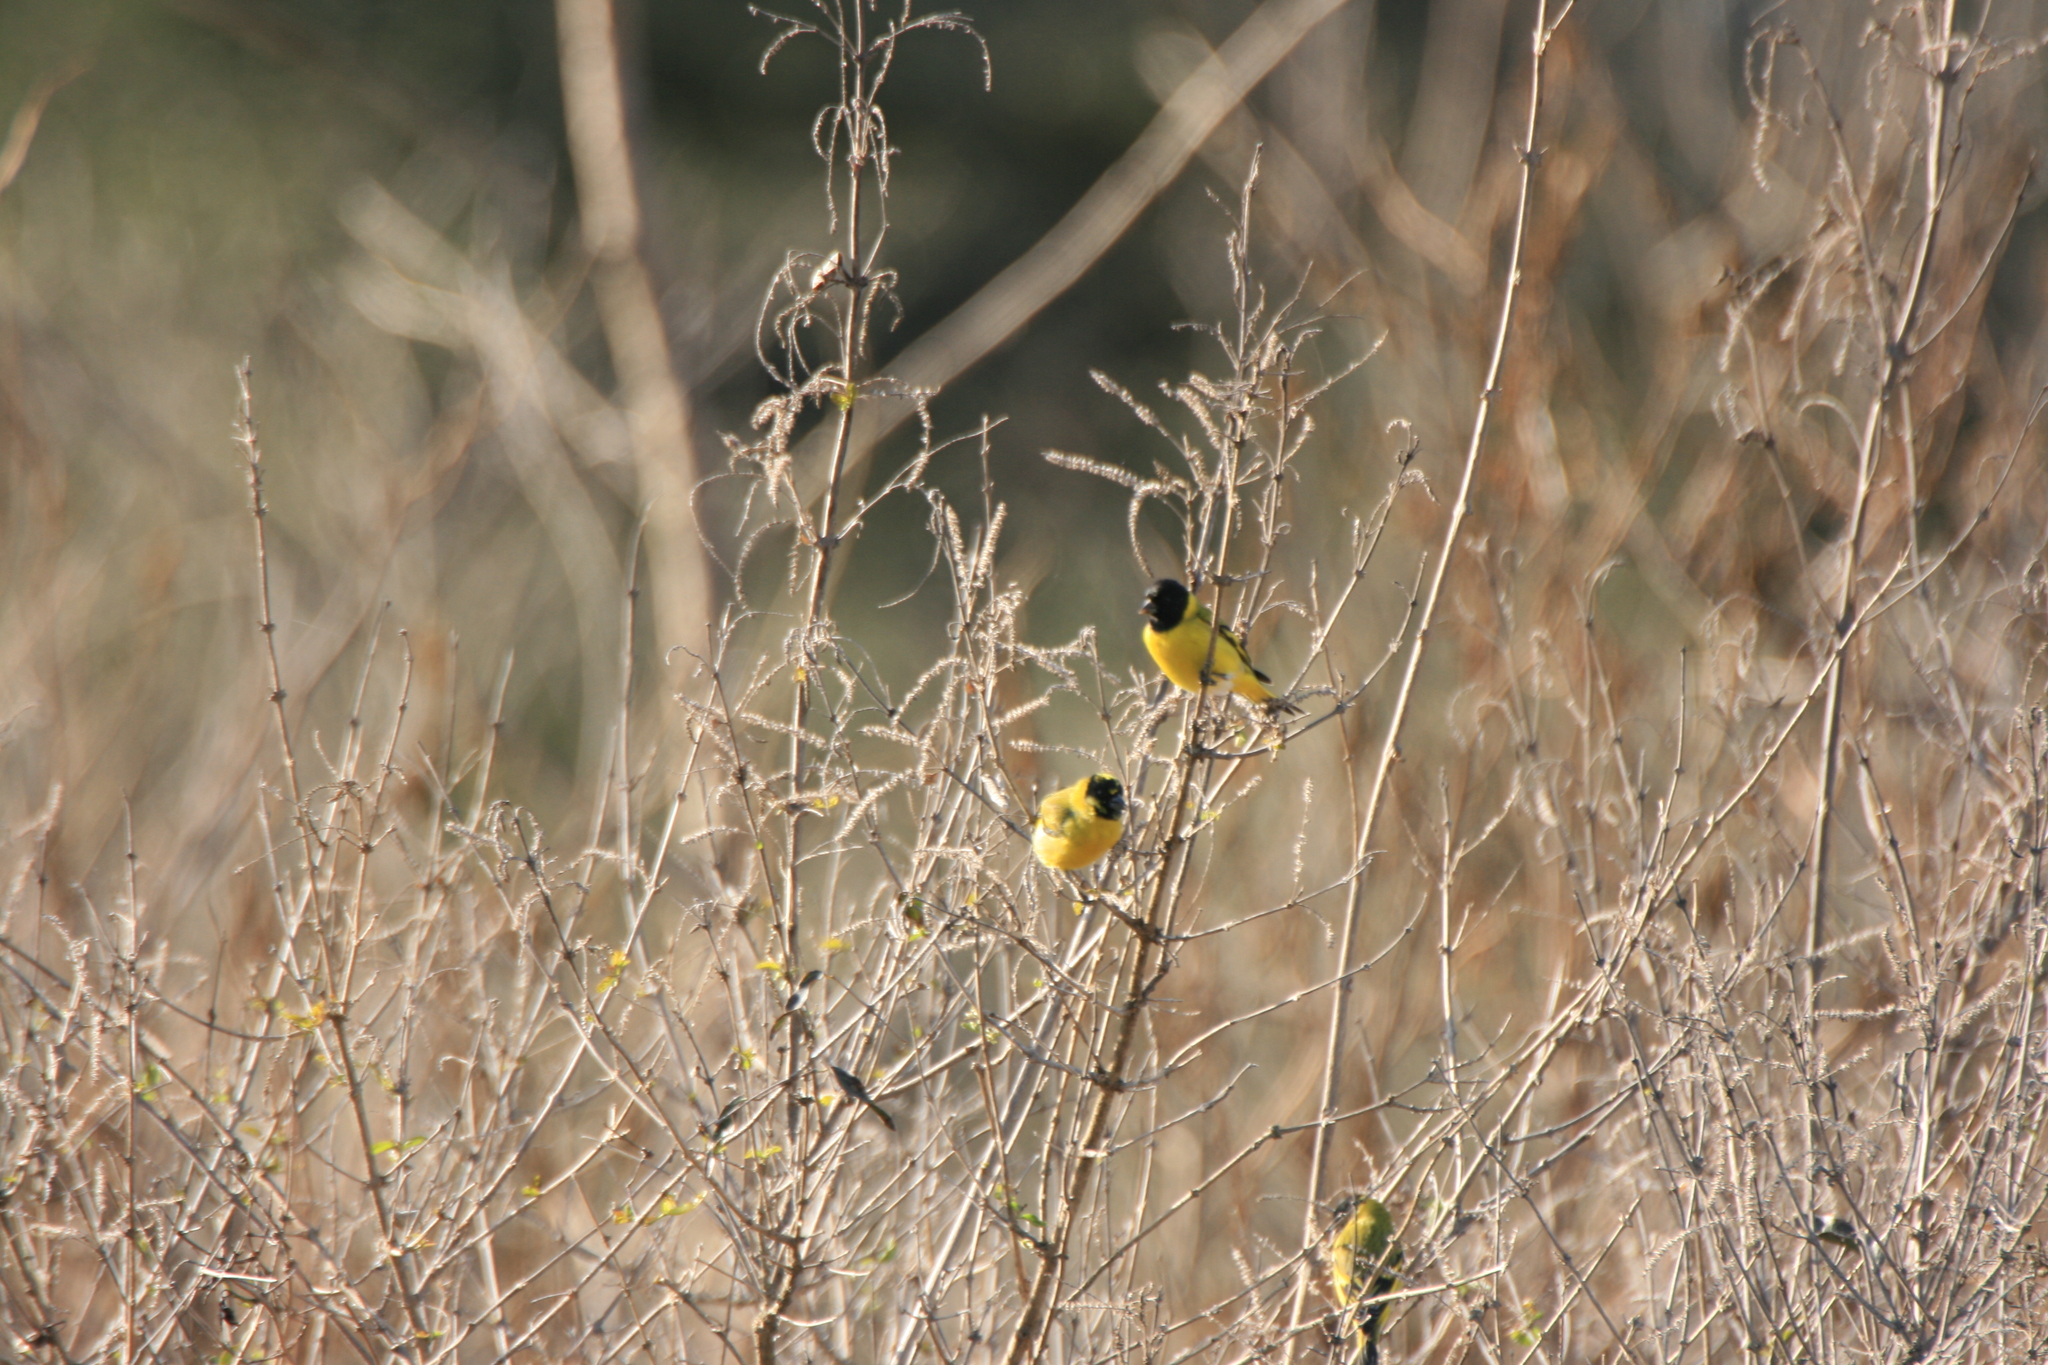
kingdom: Animalia
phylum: Chordata
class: Aves
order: Passeriformes
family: Fringillidae
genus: Spinus
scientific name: Spinus magellanicus
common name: Hooded siskin
